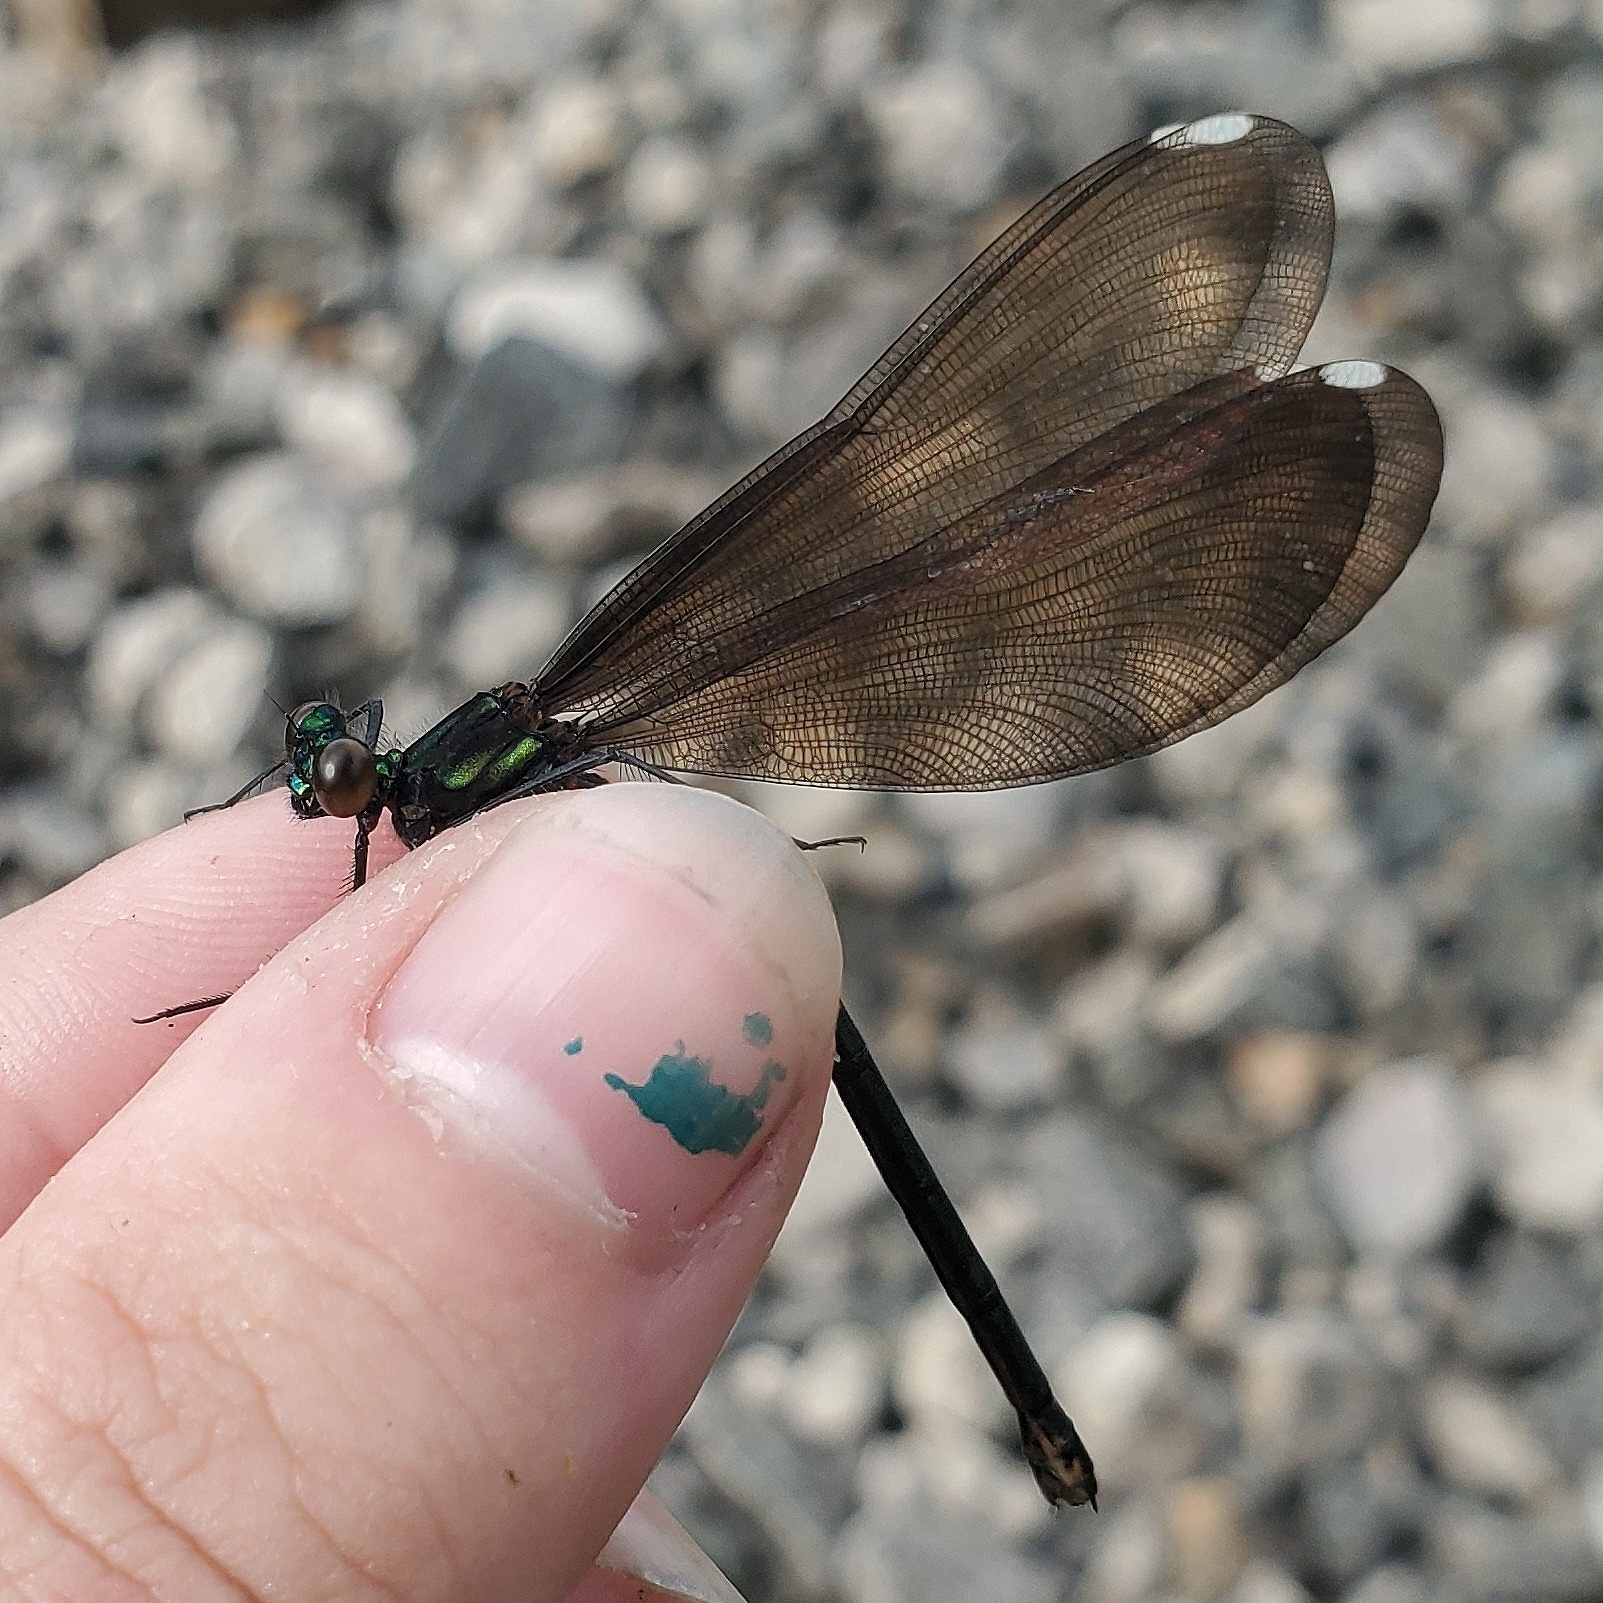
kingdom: Animalia
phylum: Arthropoda
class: Insecta
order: Odonata
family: Calopterygidae
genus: Calopteryx
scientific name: Calopteryx maculata
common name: Ebony jewelwing
